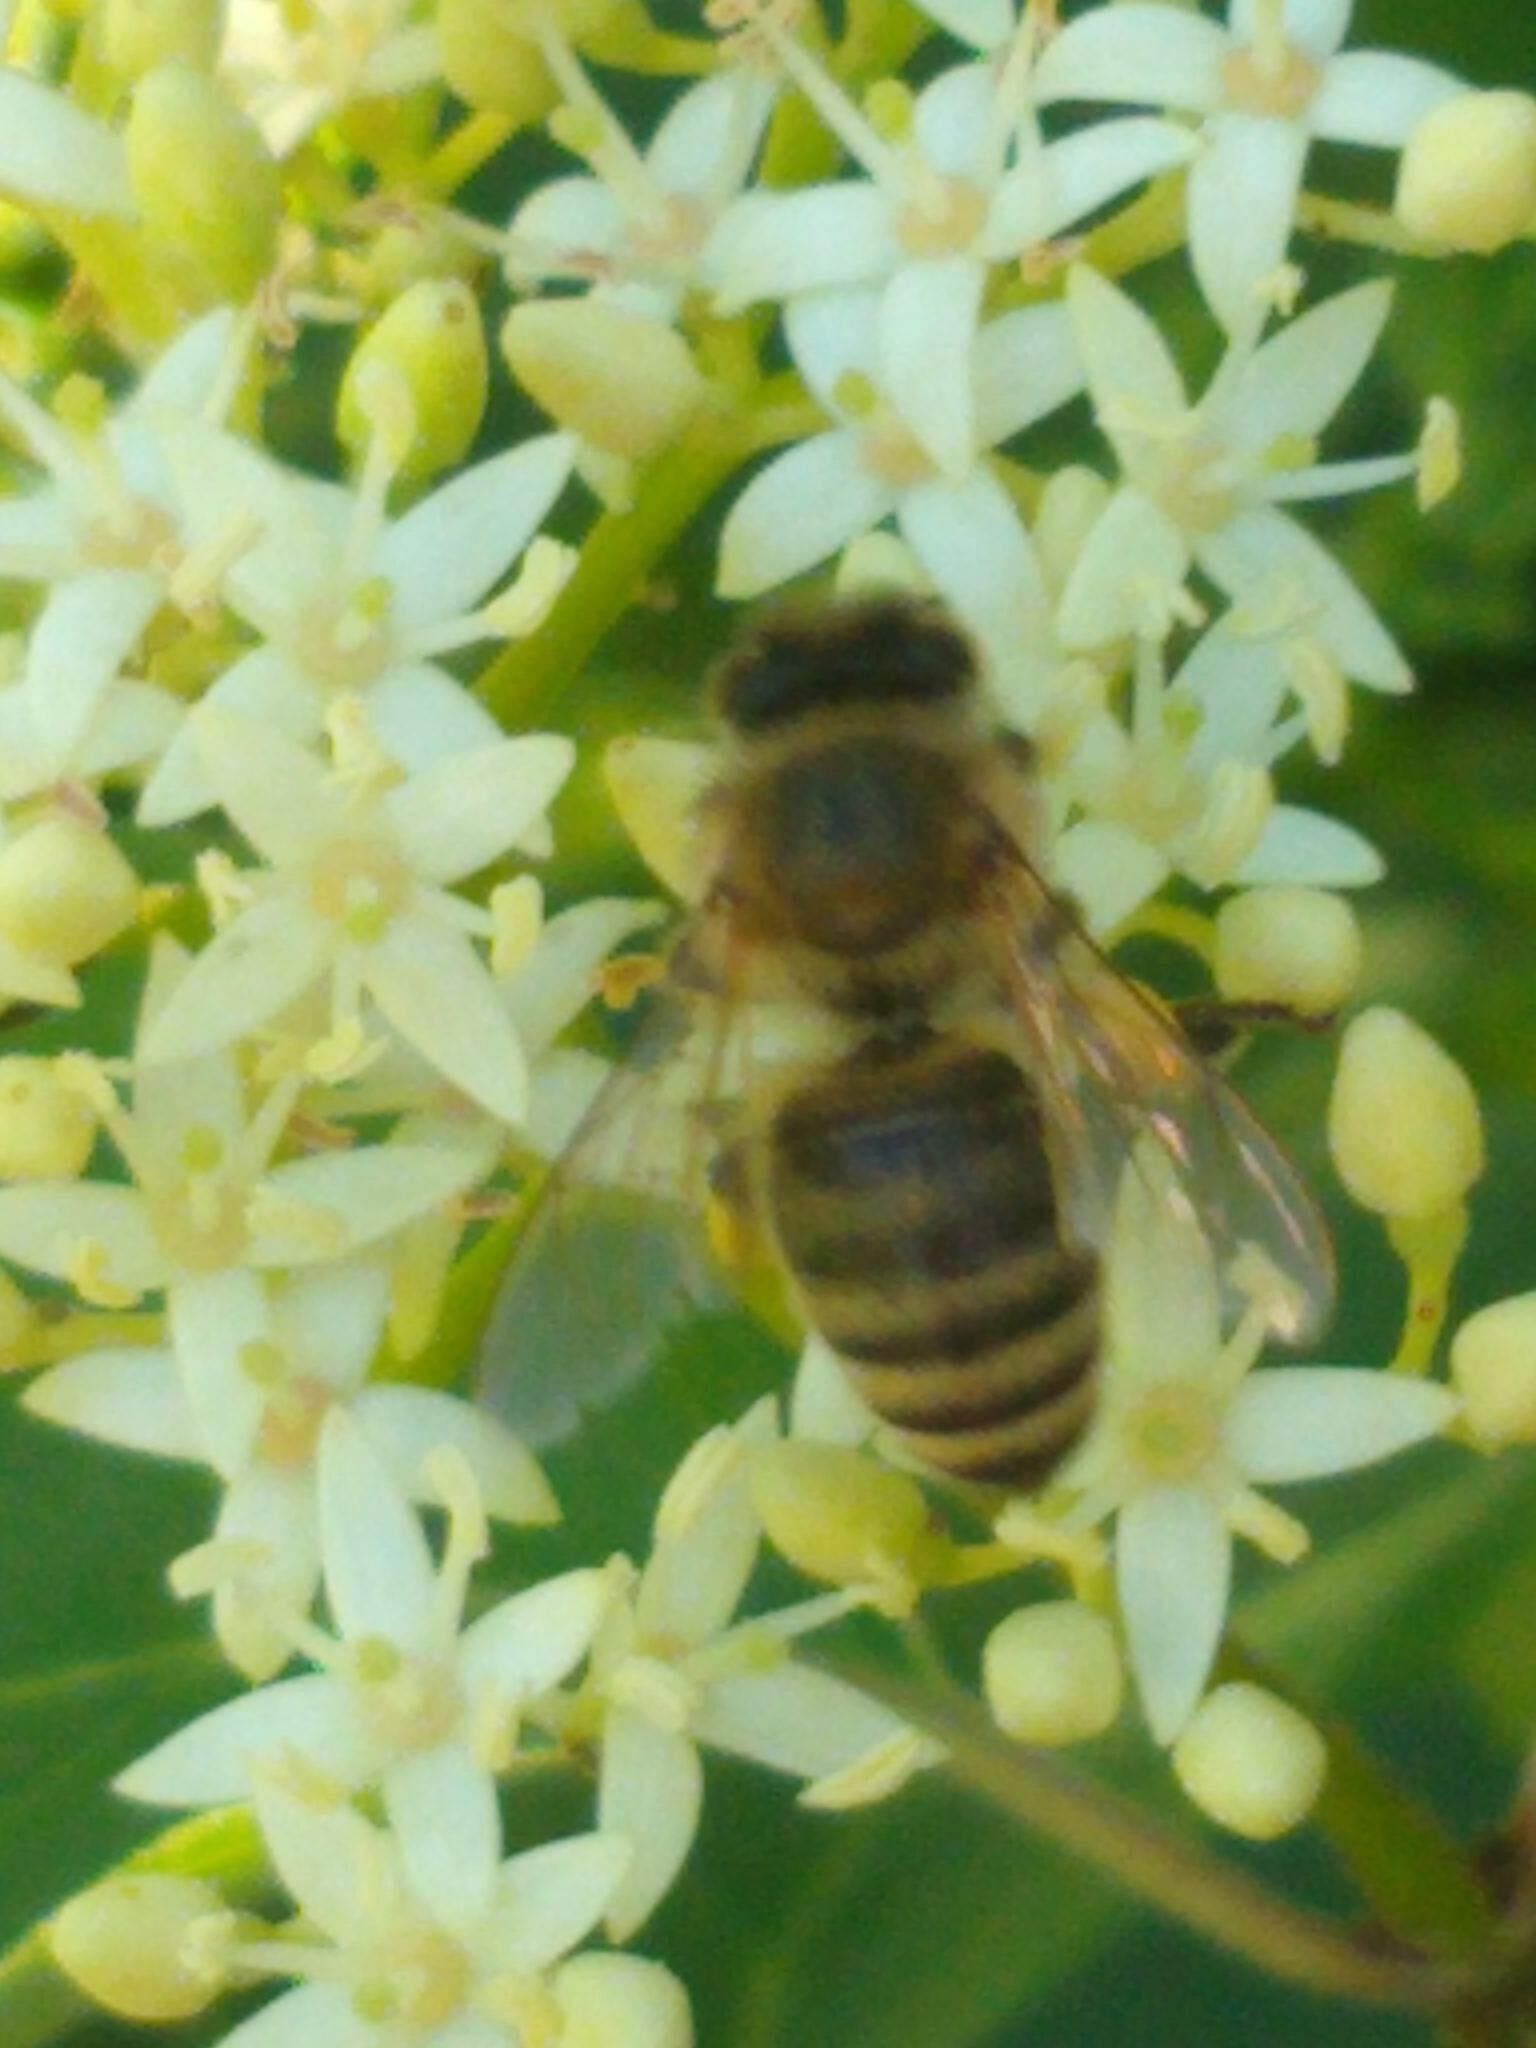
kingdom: Animalia
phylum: Arthropoda
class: Insecta
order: Hymenoptera
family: Apidae
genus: Apis
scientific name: Apis mellifera
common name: Honey bee
